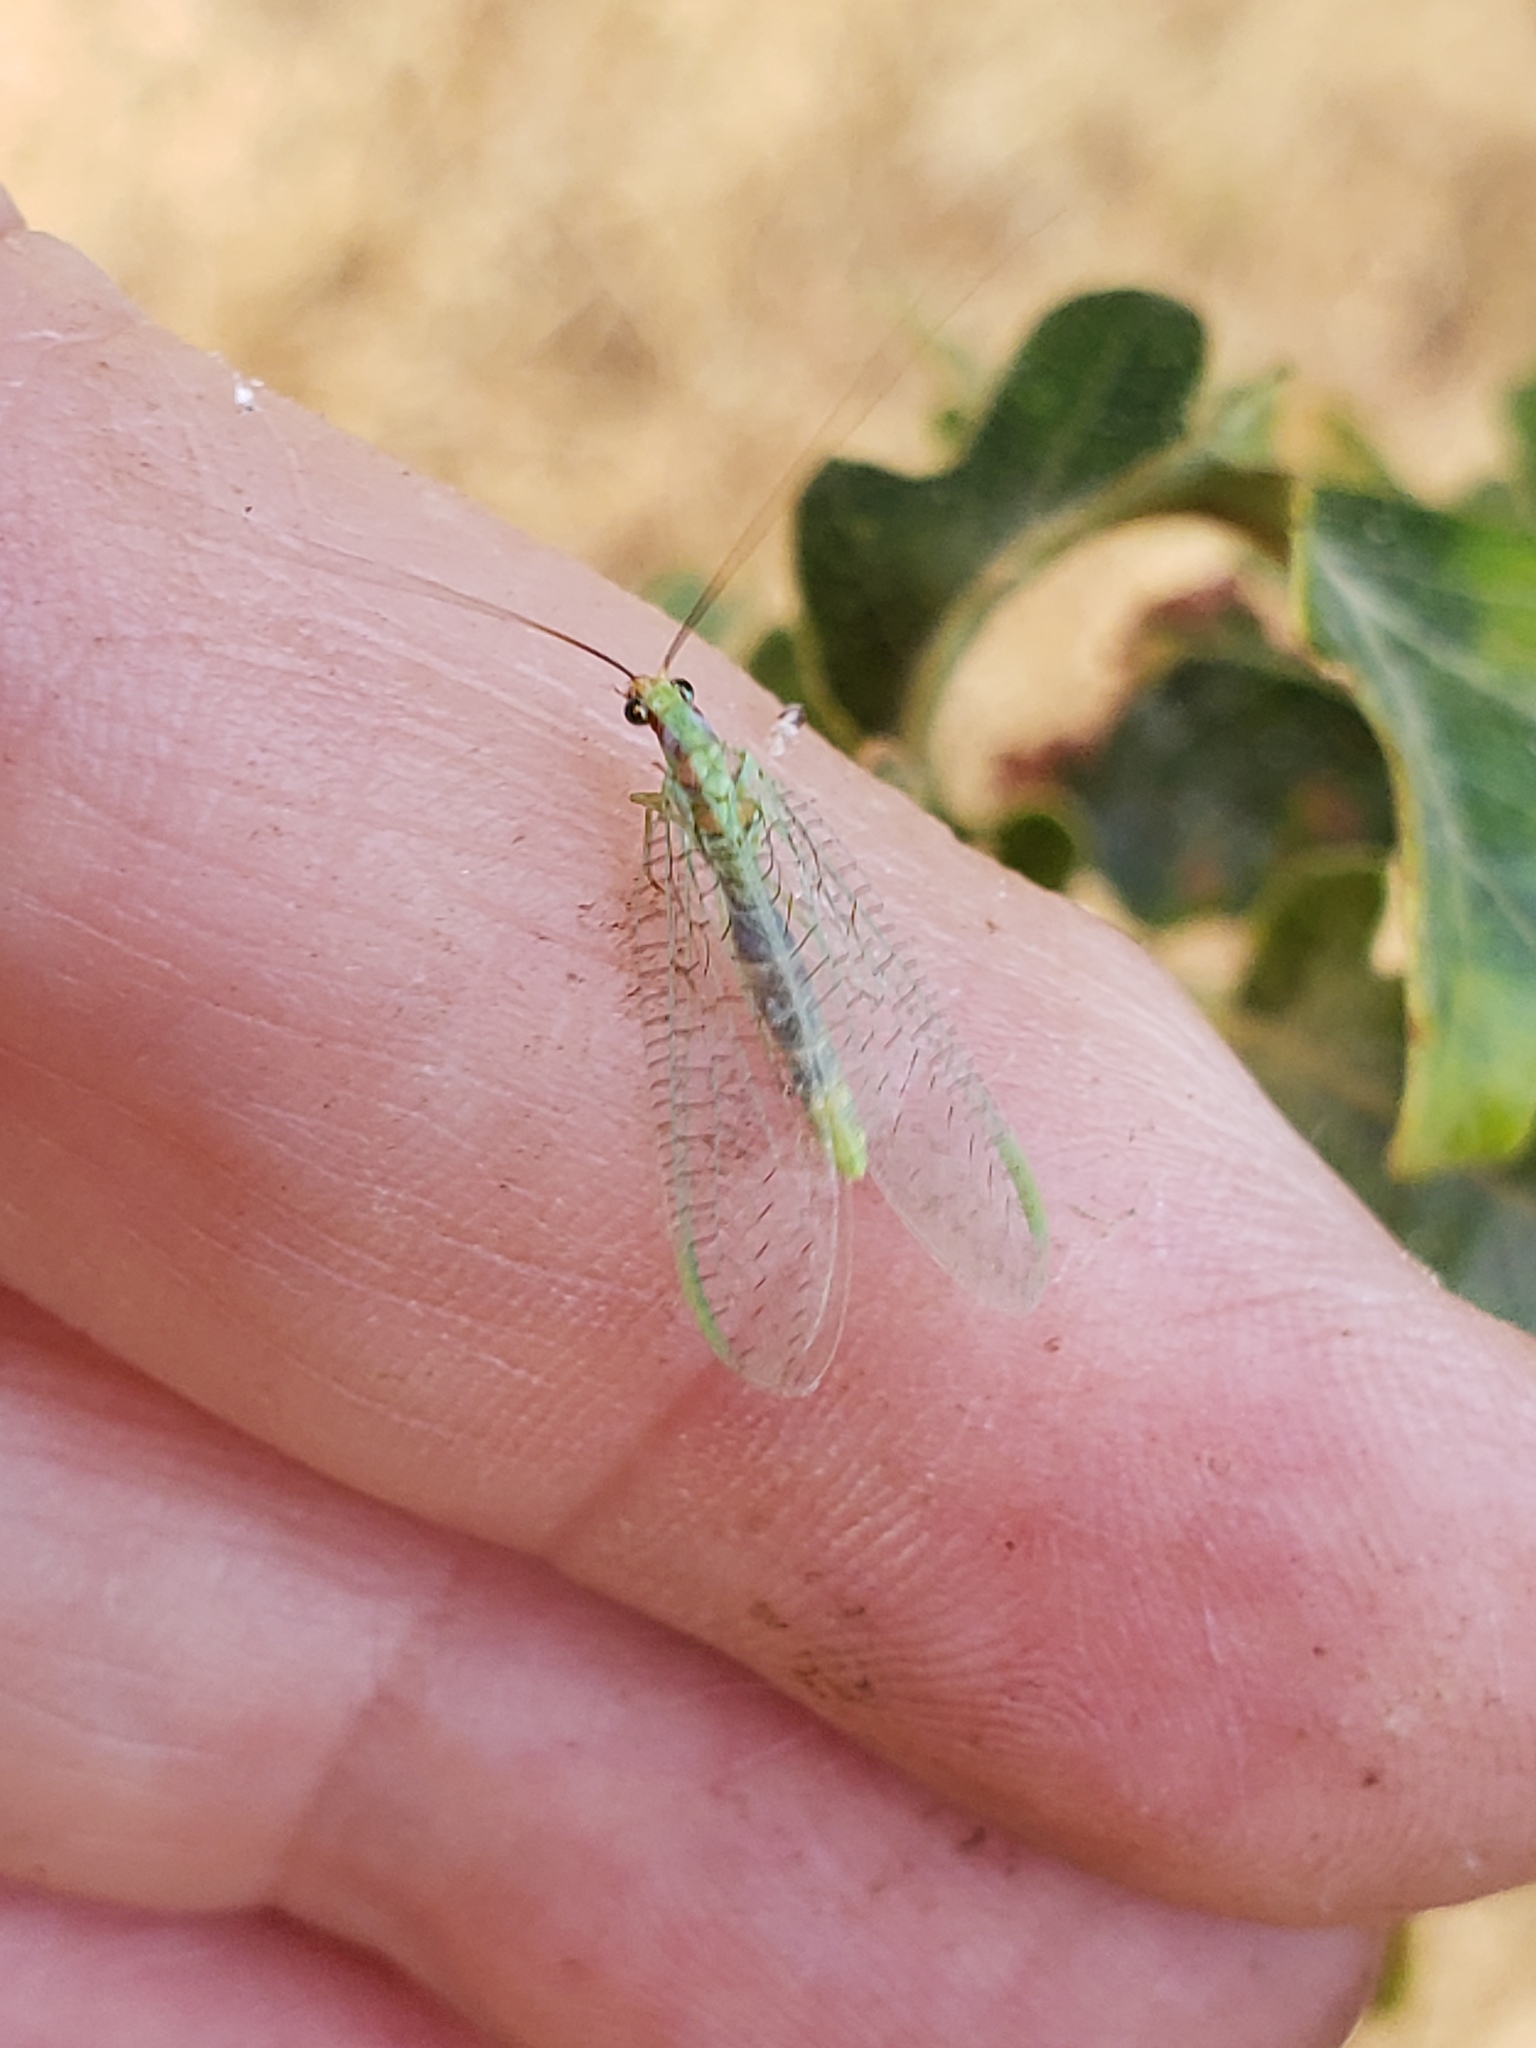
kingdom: Animalia
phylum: Arthropoda
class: Insecta
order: Neuroptera
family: Chrysopidae
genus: Chrysopa
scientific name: Chrysopa coloradensis
